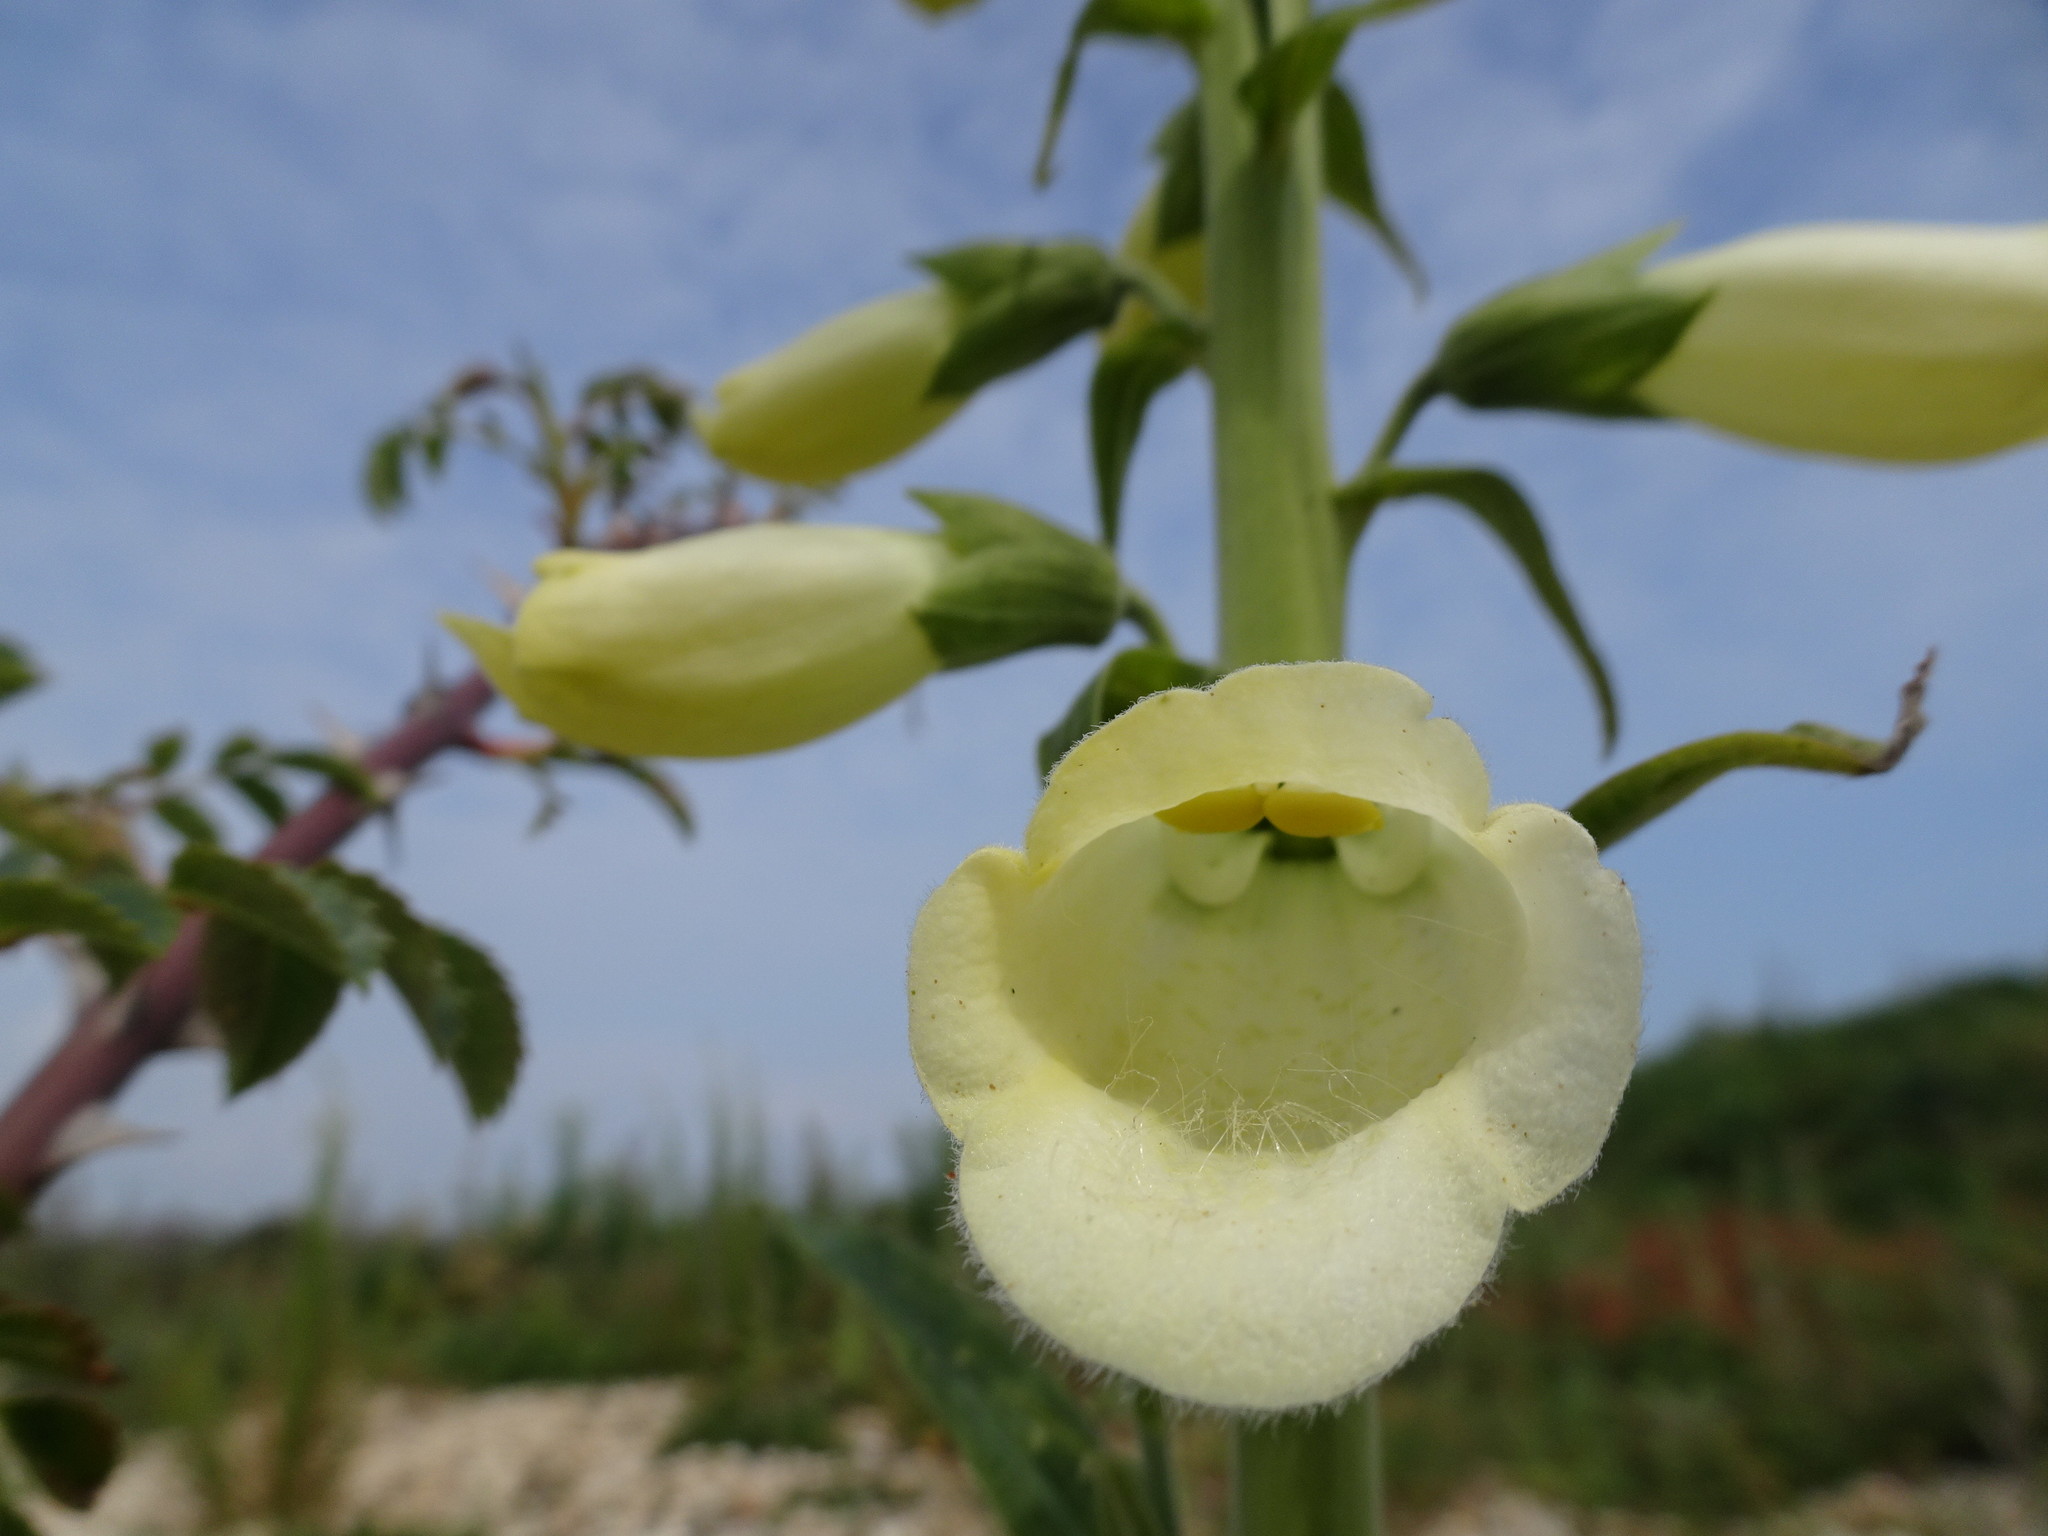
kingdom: Plantae
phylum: Tracheophyta
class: Magnoliopsida
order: Lamiales
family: Plantaginaceae
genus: Digitalis
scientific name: Digitalis purpurea
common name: Foxglove
